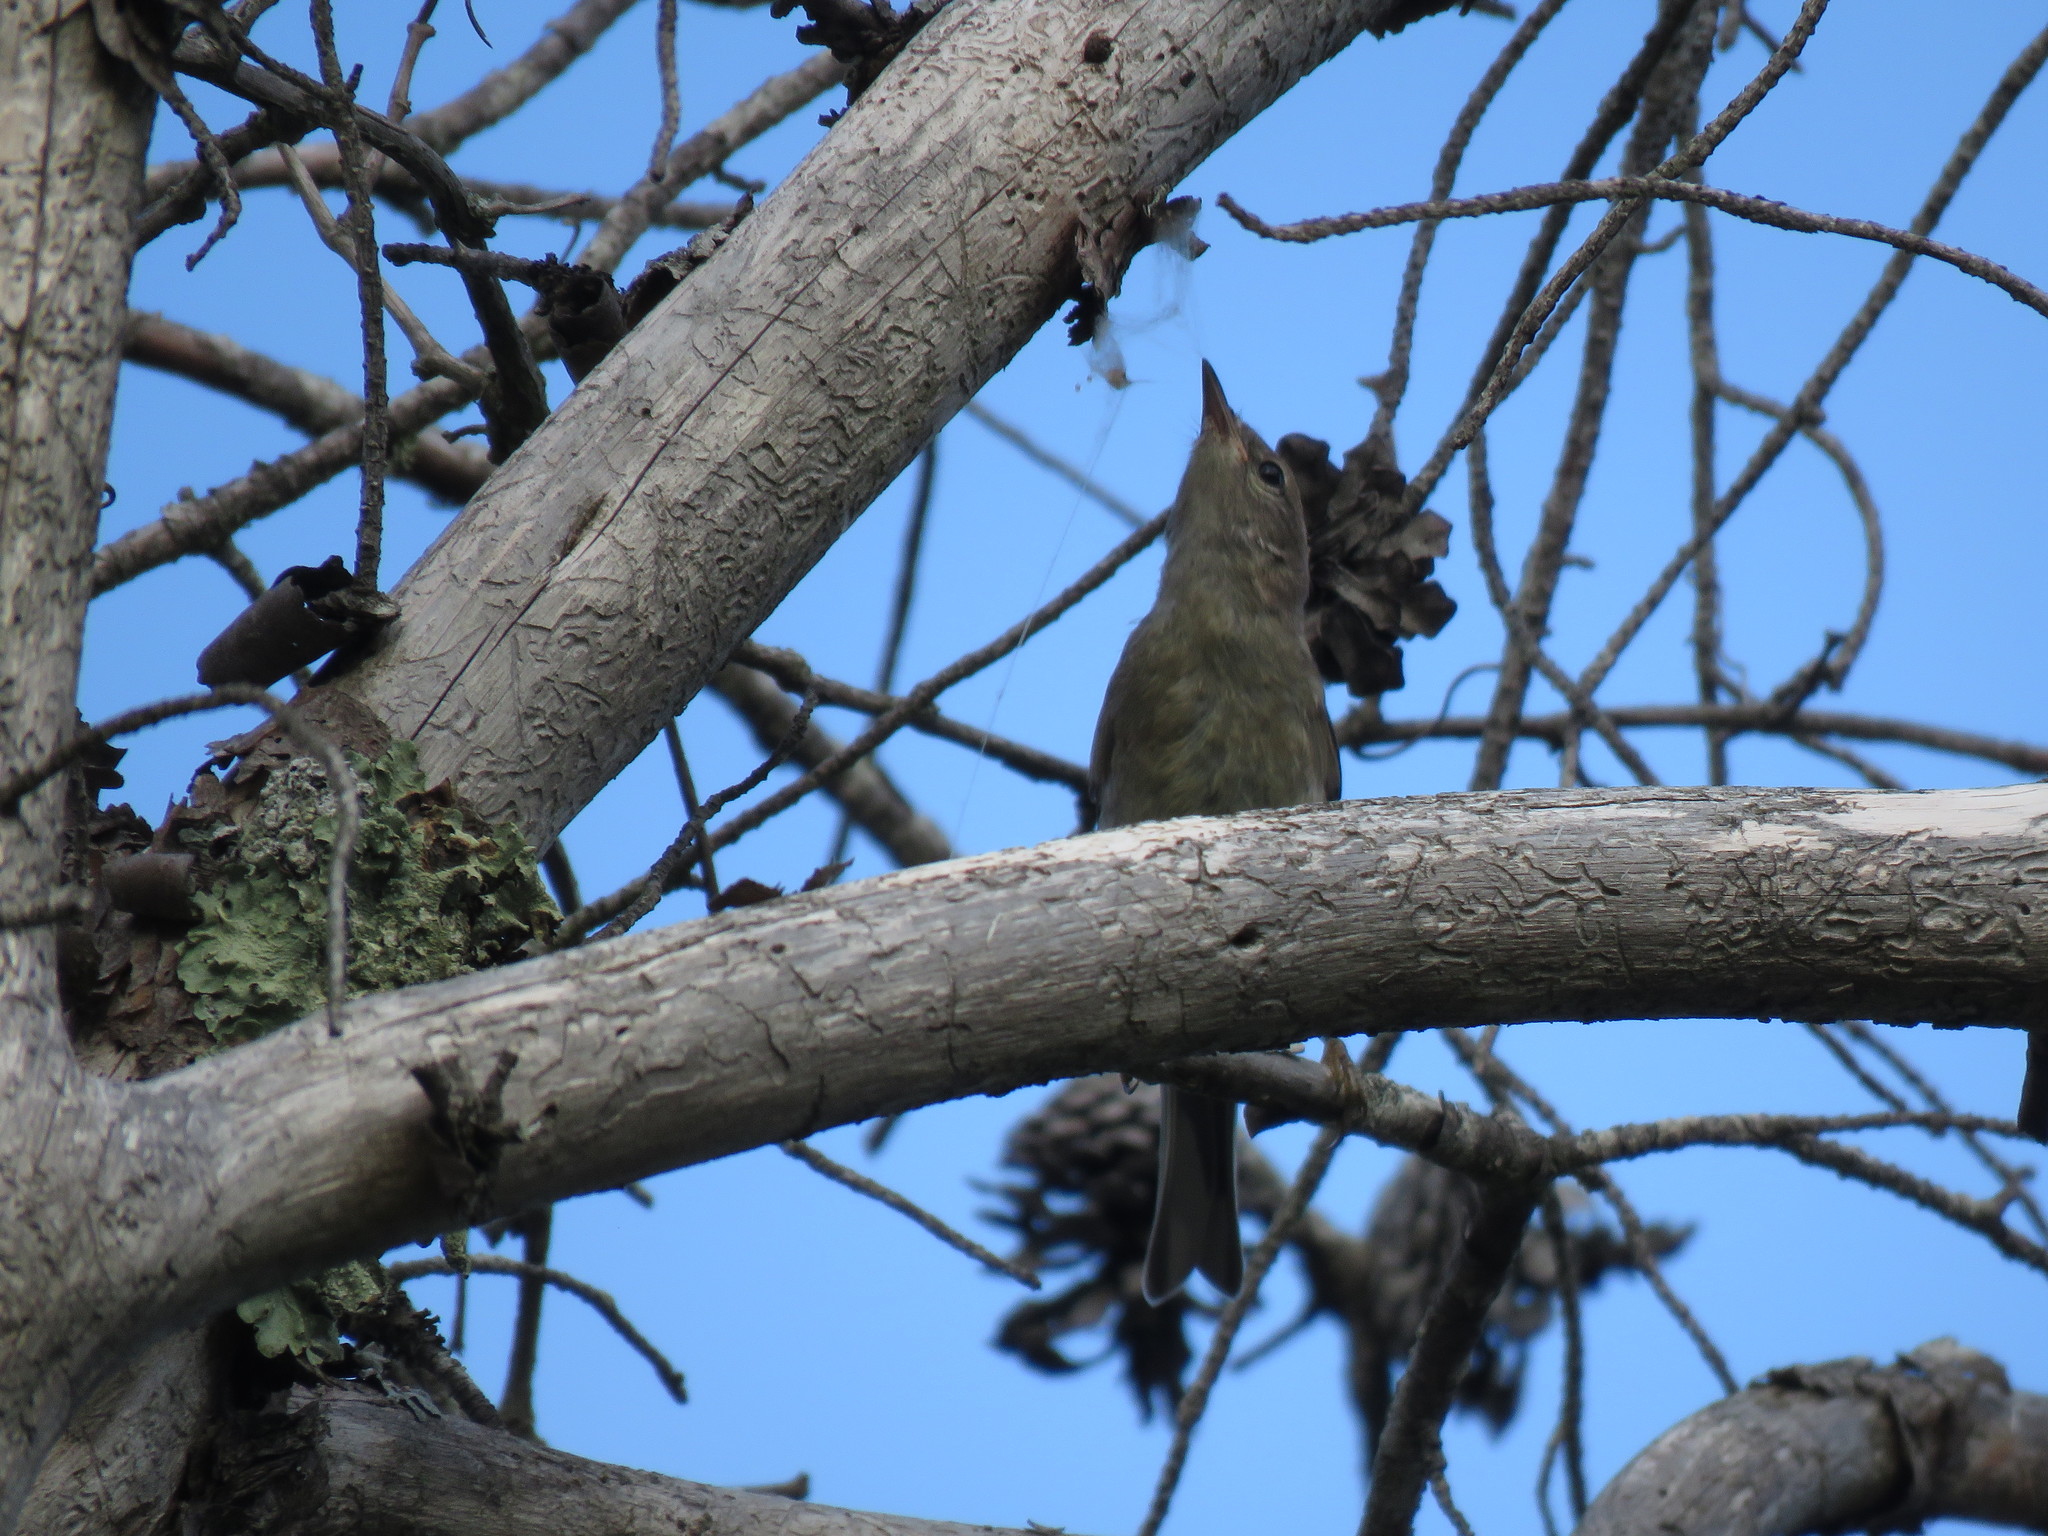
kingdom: Animalia
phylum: Chordata
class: Aves
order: Passeriformes
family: Parulidae
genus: Setophaga
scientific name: Setophaga pinus
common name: Pine warbler
